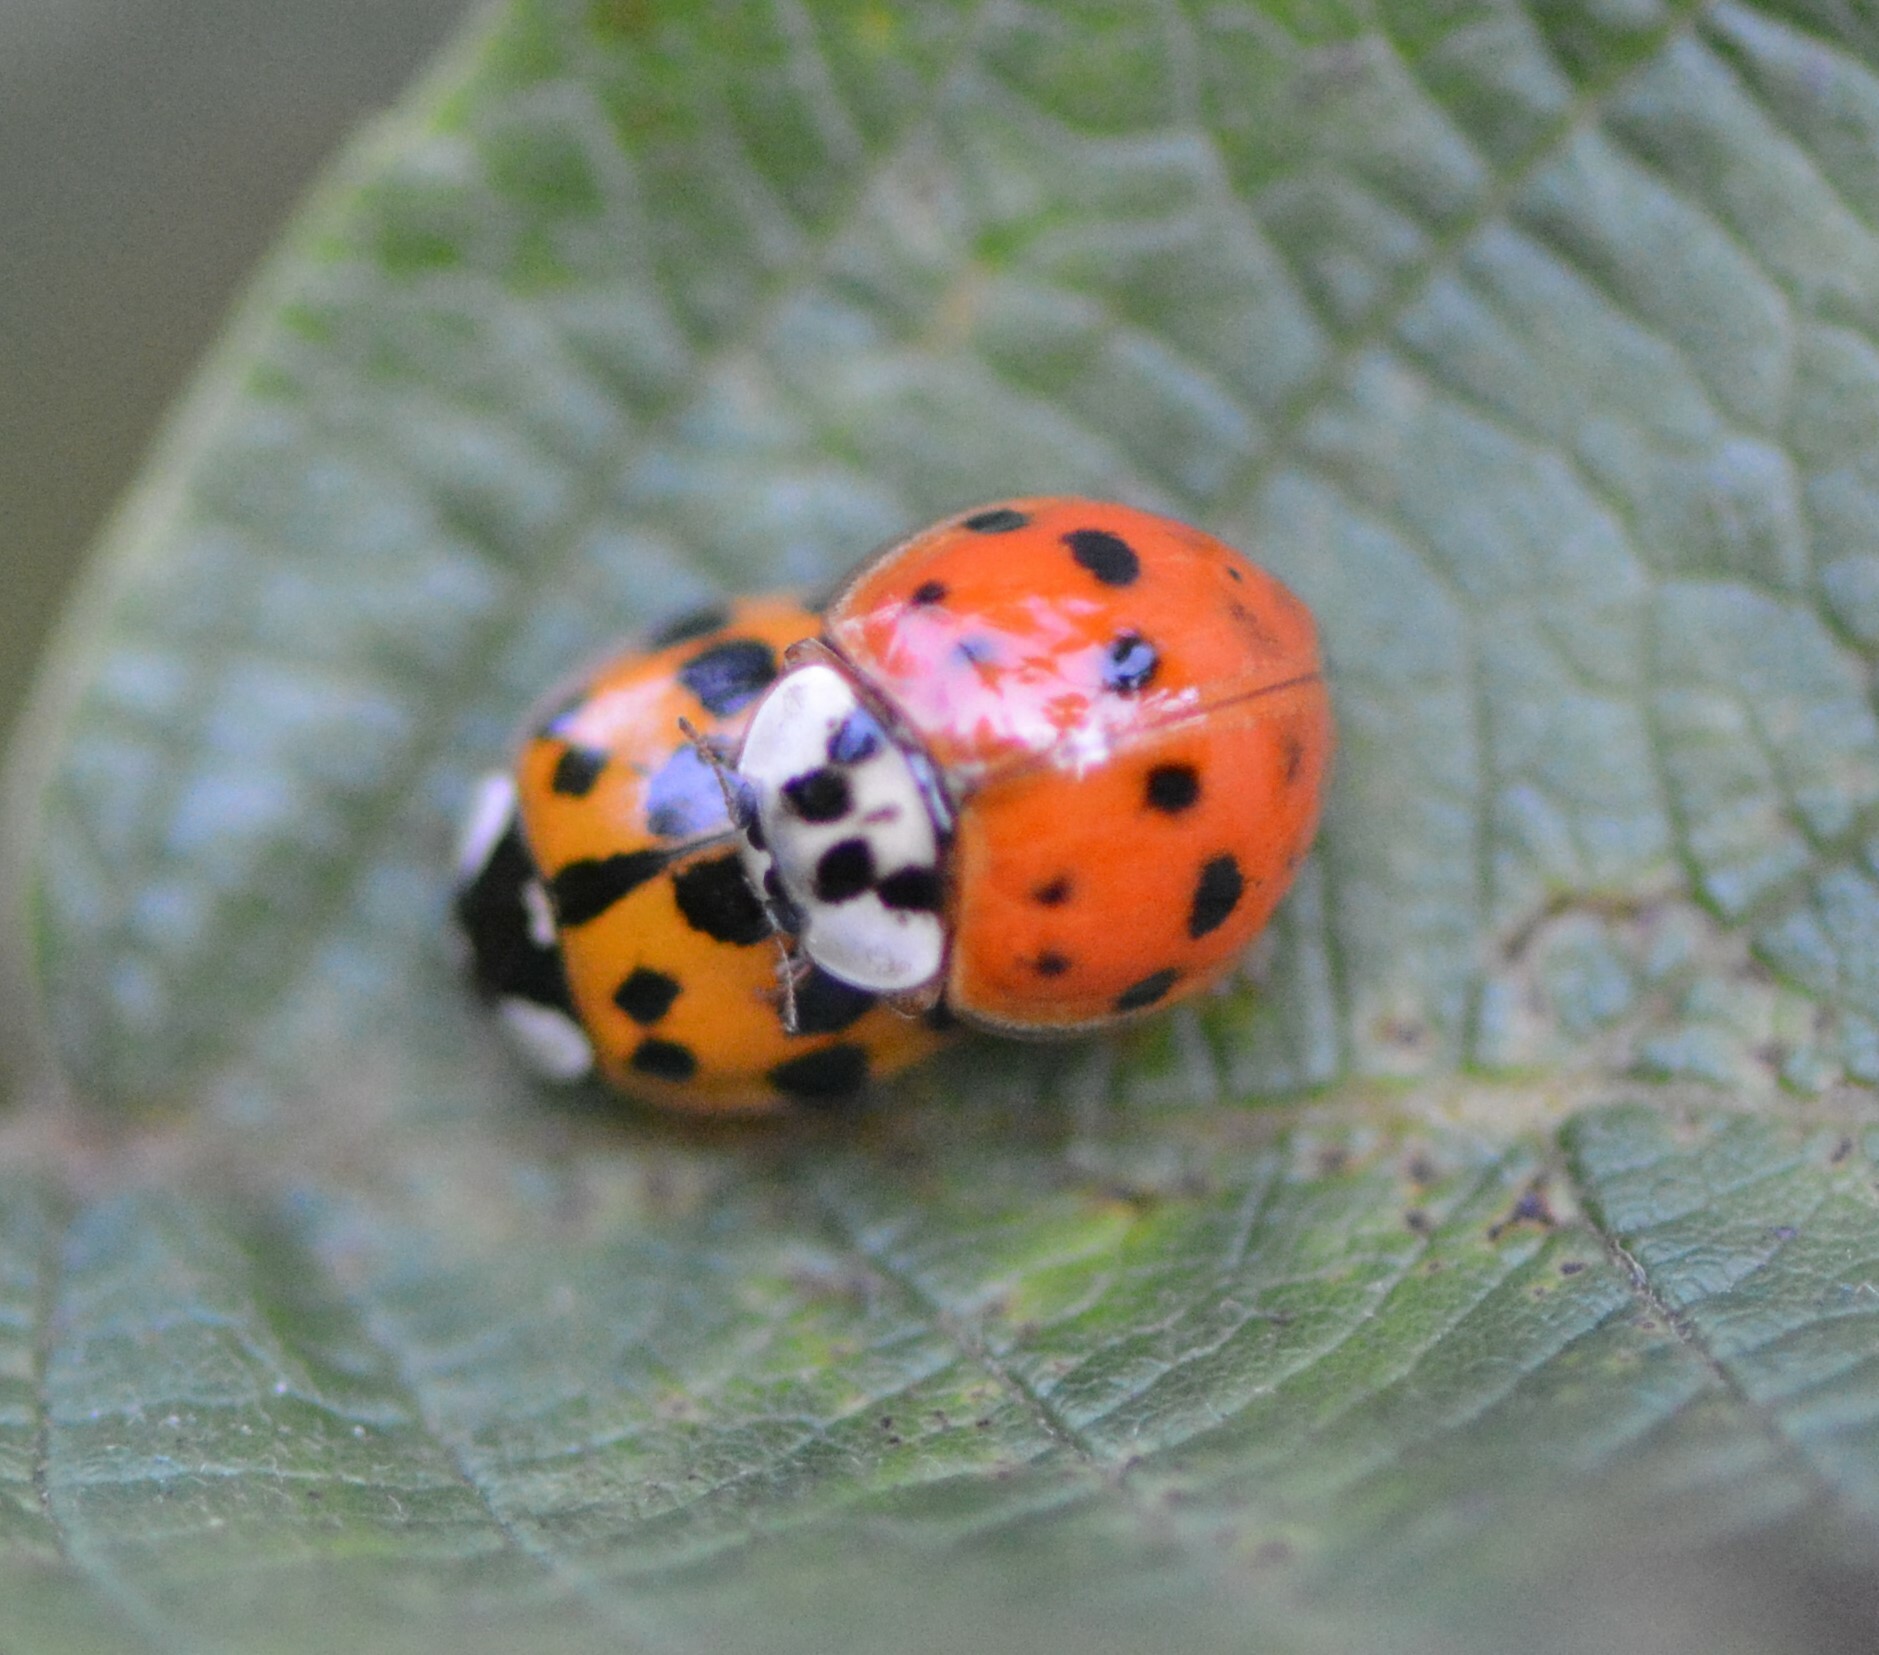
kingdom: Animalia
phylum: Arthropoda
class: Insecta
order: Coleoptera
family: Coccinellidae
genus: Harmonia
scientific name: Harmonia axyridis
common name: Harlequin ladybird
